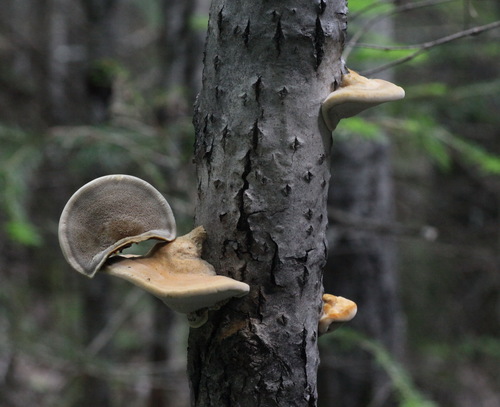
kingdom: Fungi
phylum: Basidiomycota
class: Agaricomycetes
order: Polyporales
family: Polyporaceae
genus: Trametes
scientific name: Trametes suaveolens
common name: Fragrant bracket
